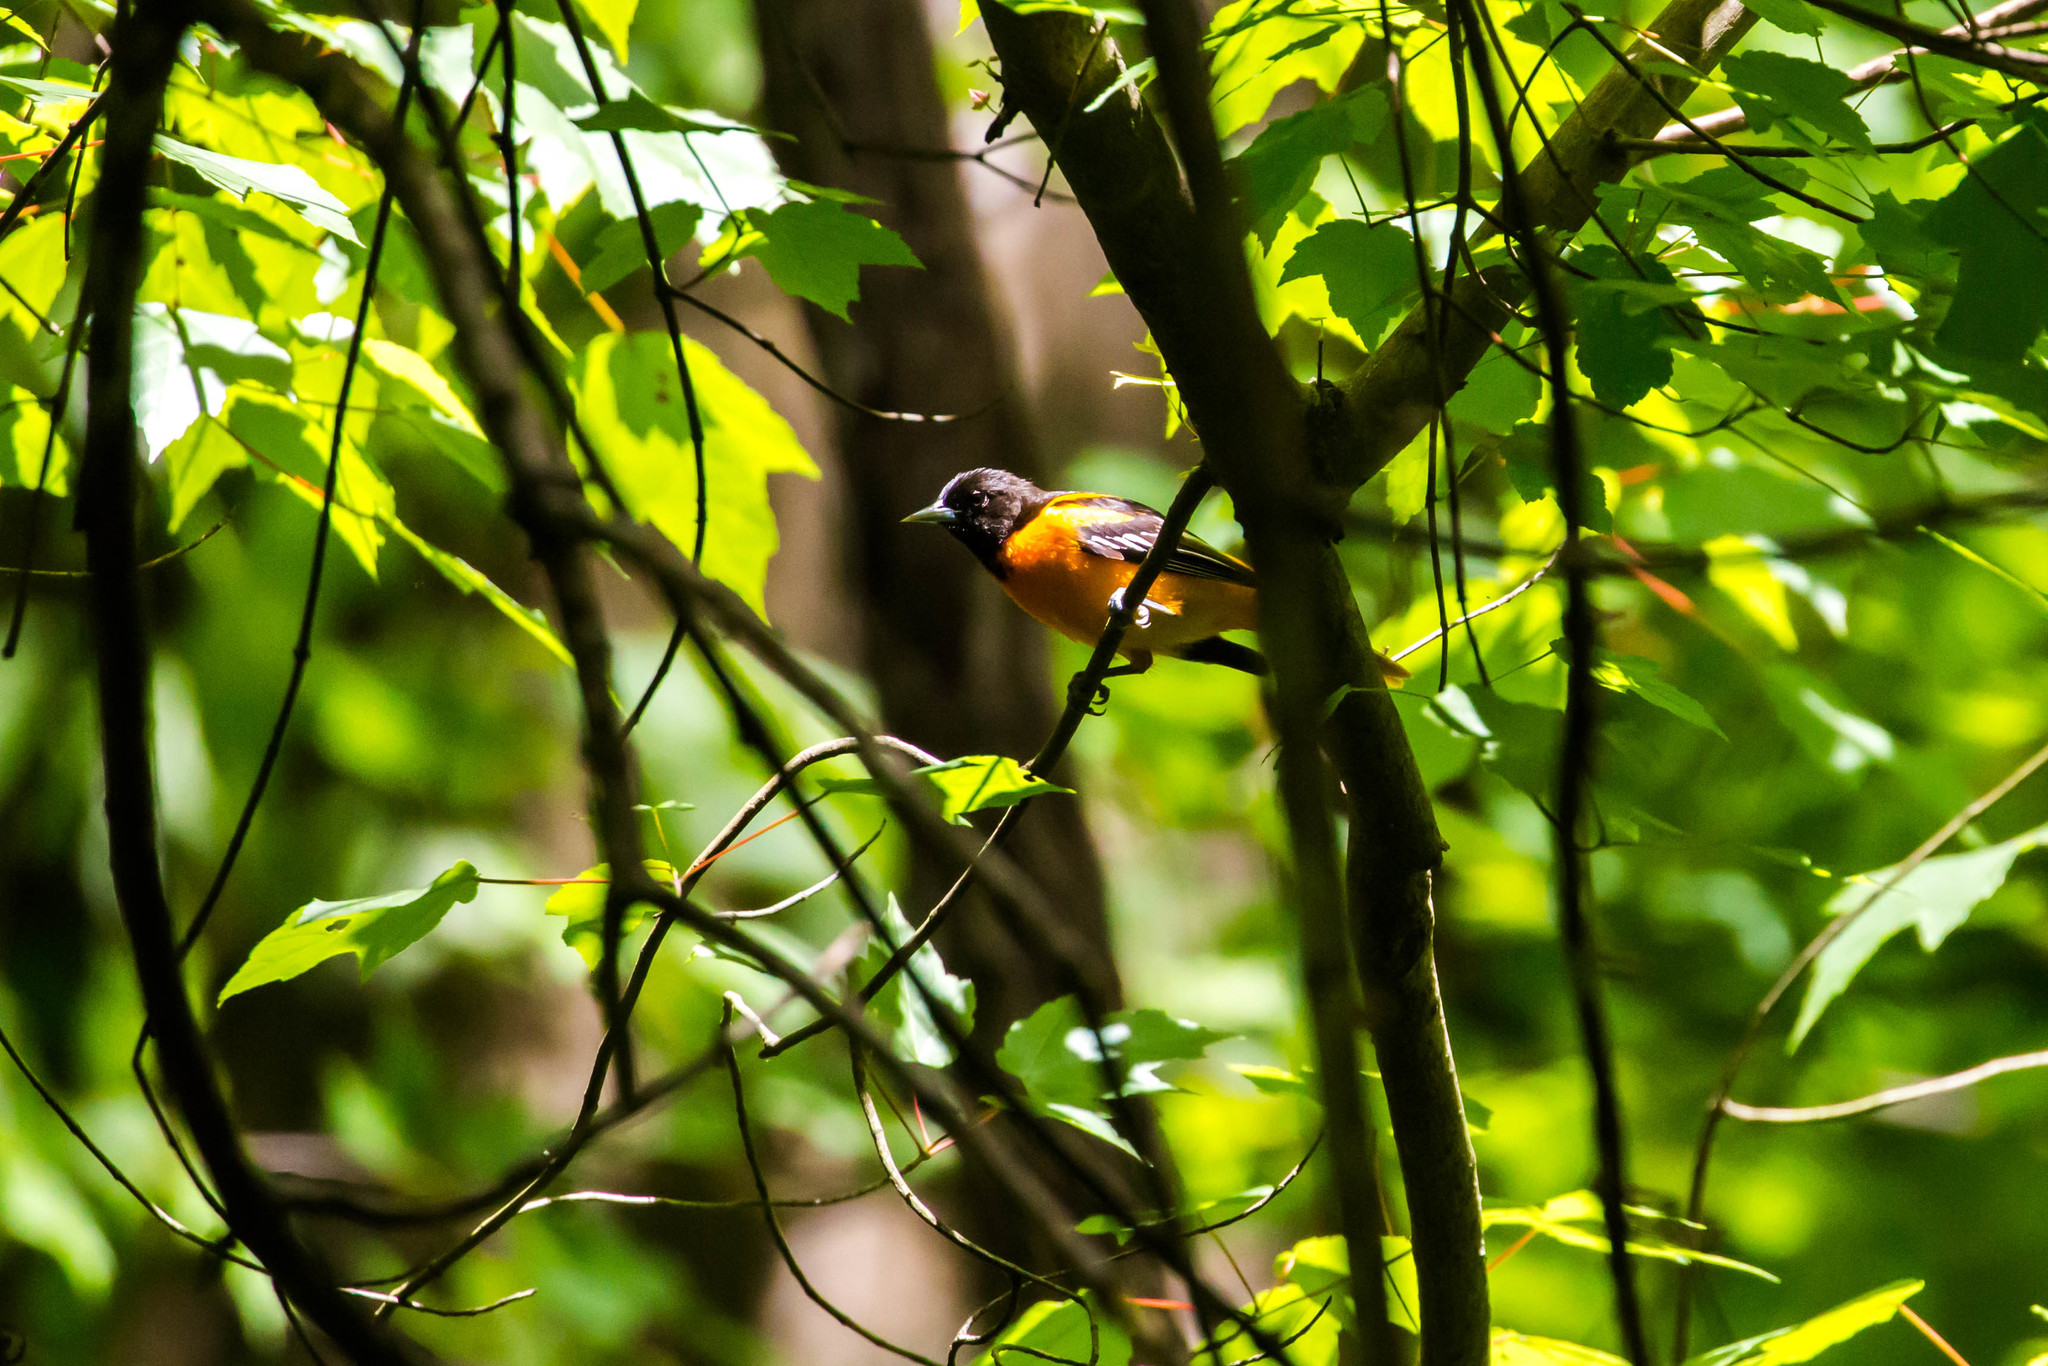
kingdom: Animalia
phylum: Chordata
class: Aves
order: Passeriformes
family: Icteridae
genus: Icterus
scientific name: Icterus galbula
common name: Baltimore oriole
